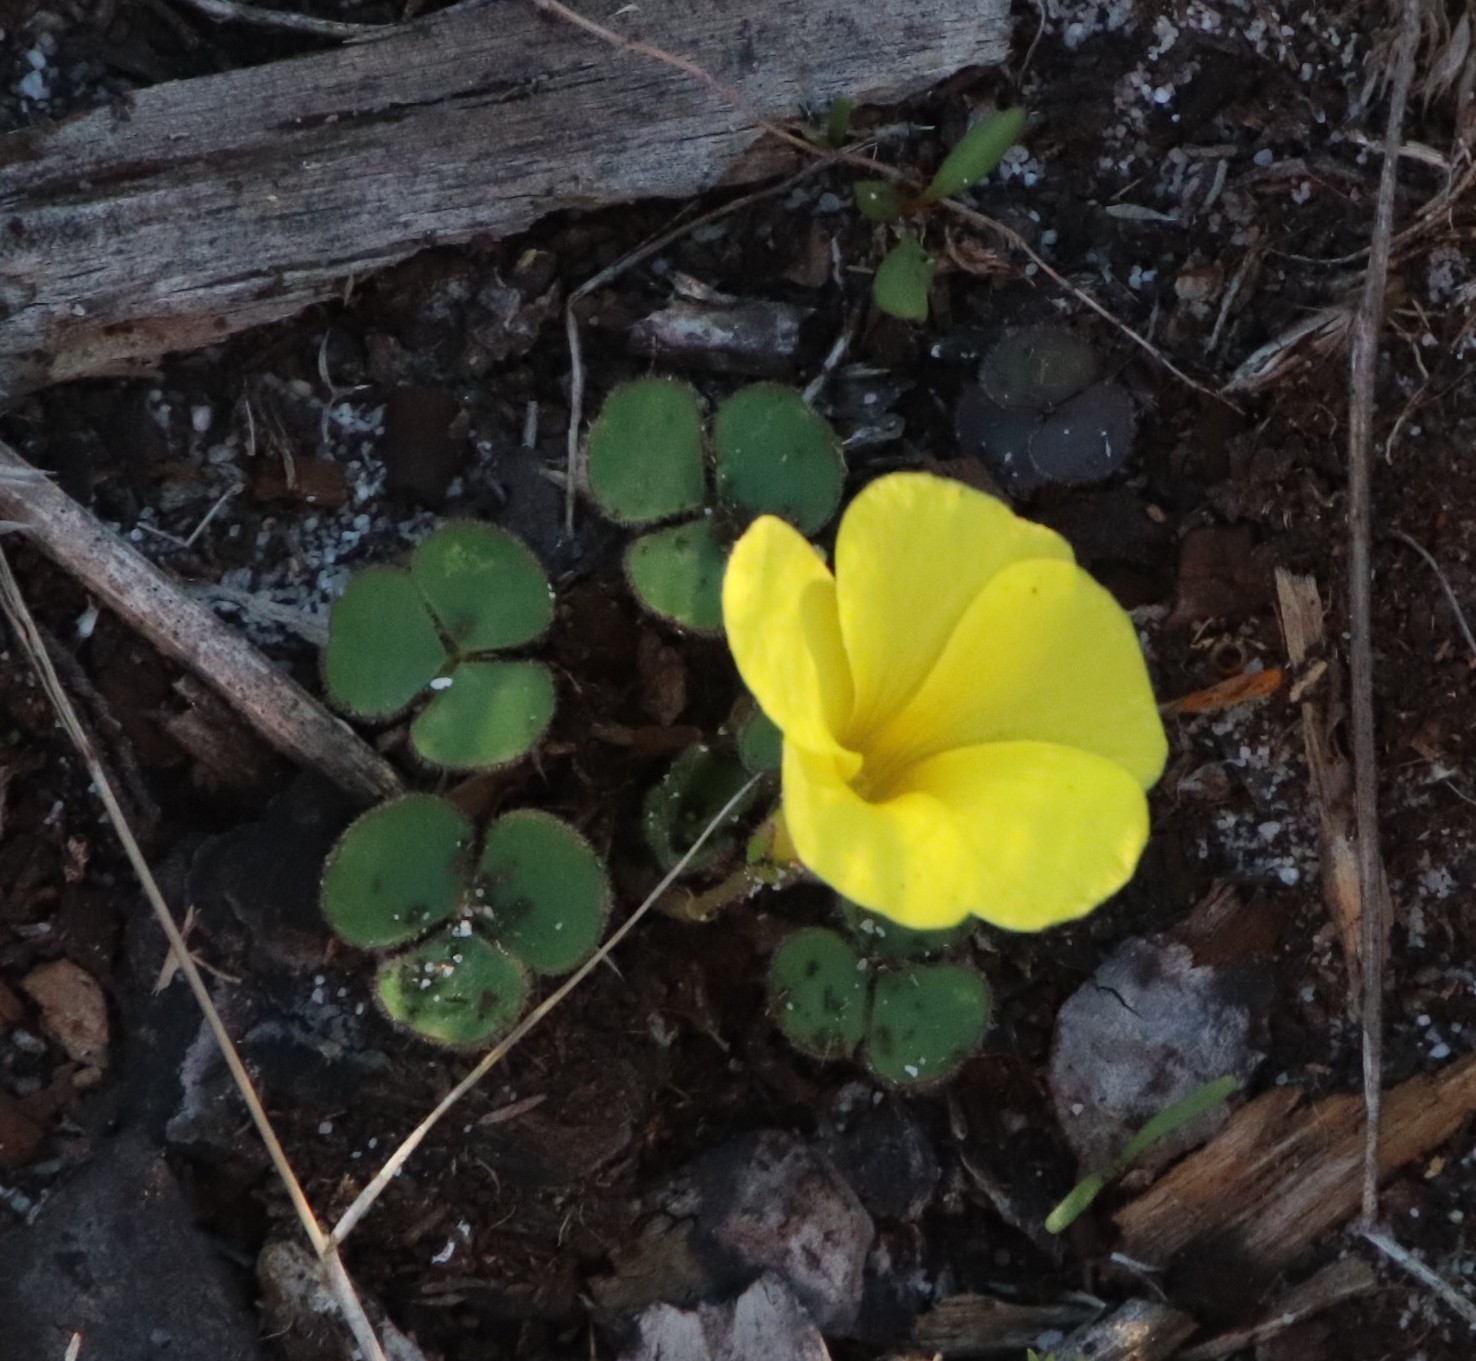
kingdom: Plantae
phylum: Tracheophyta
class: Magnoliopsida
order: Oxalidales
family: Oxalidaceae
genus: Oxalis
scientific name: Oxalis luteola
